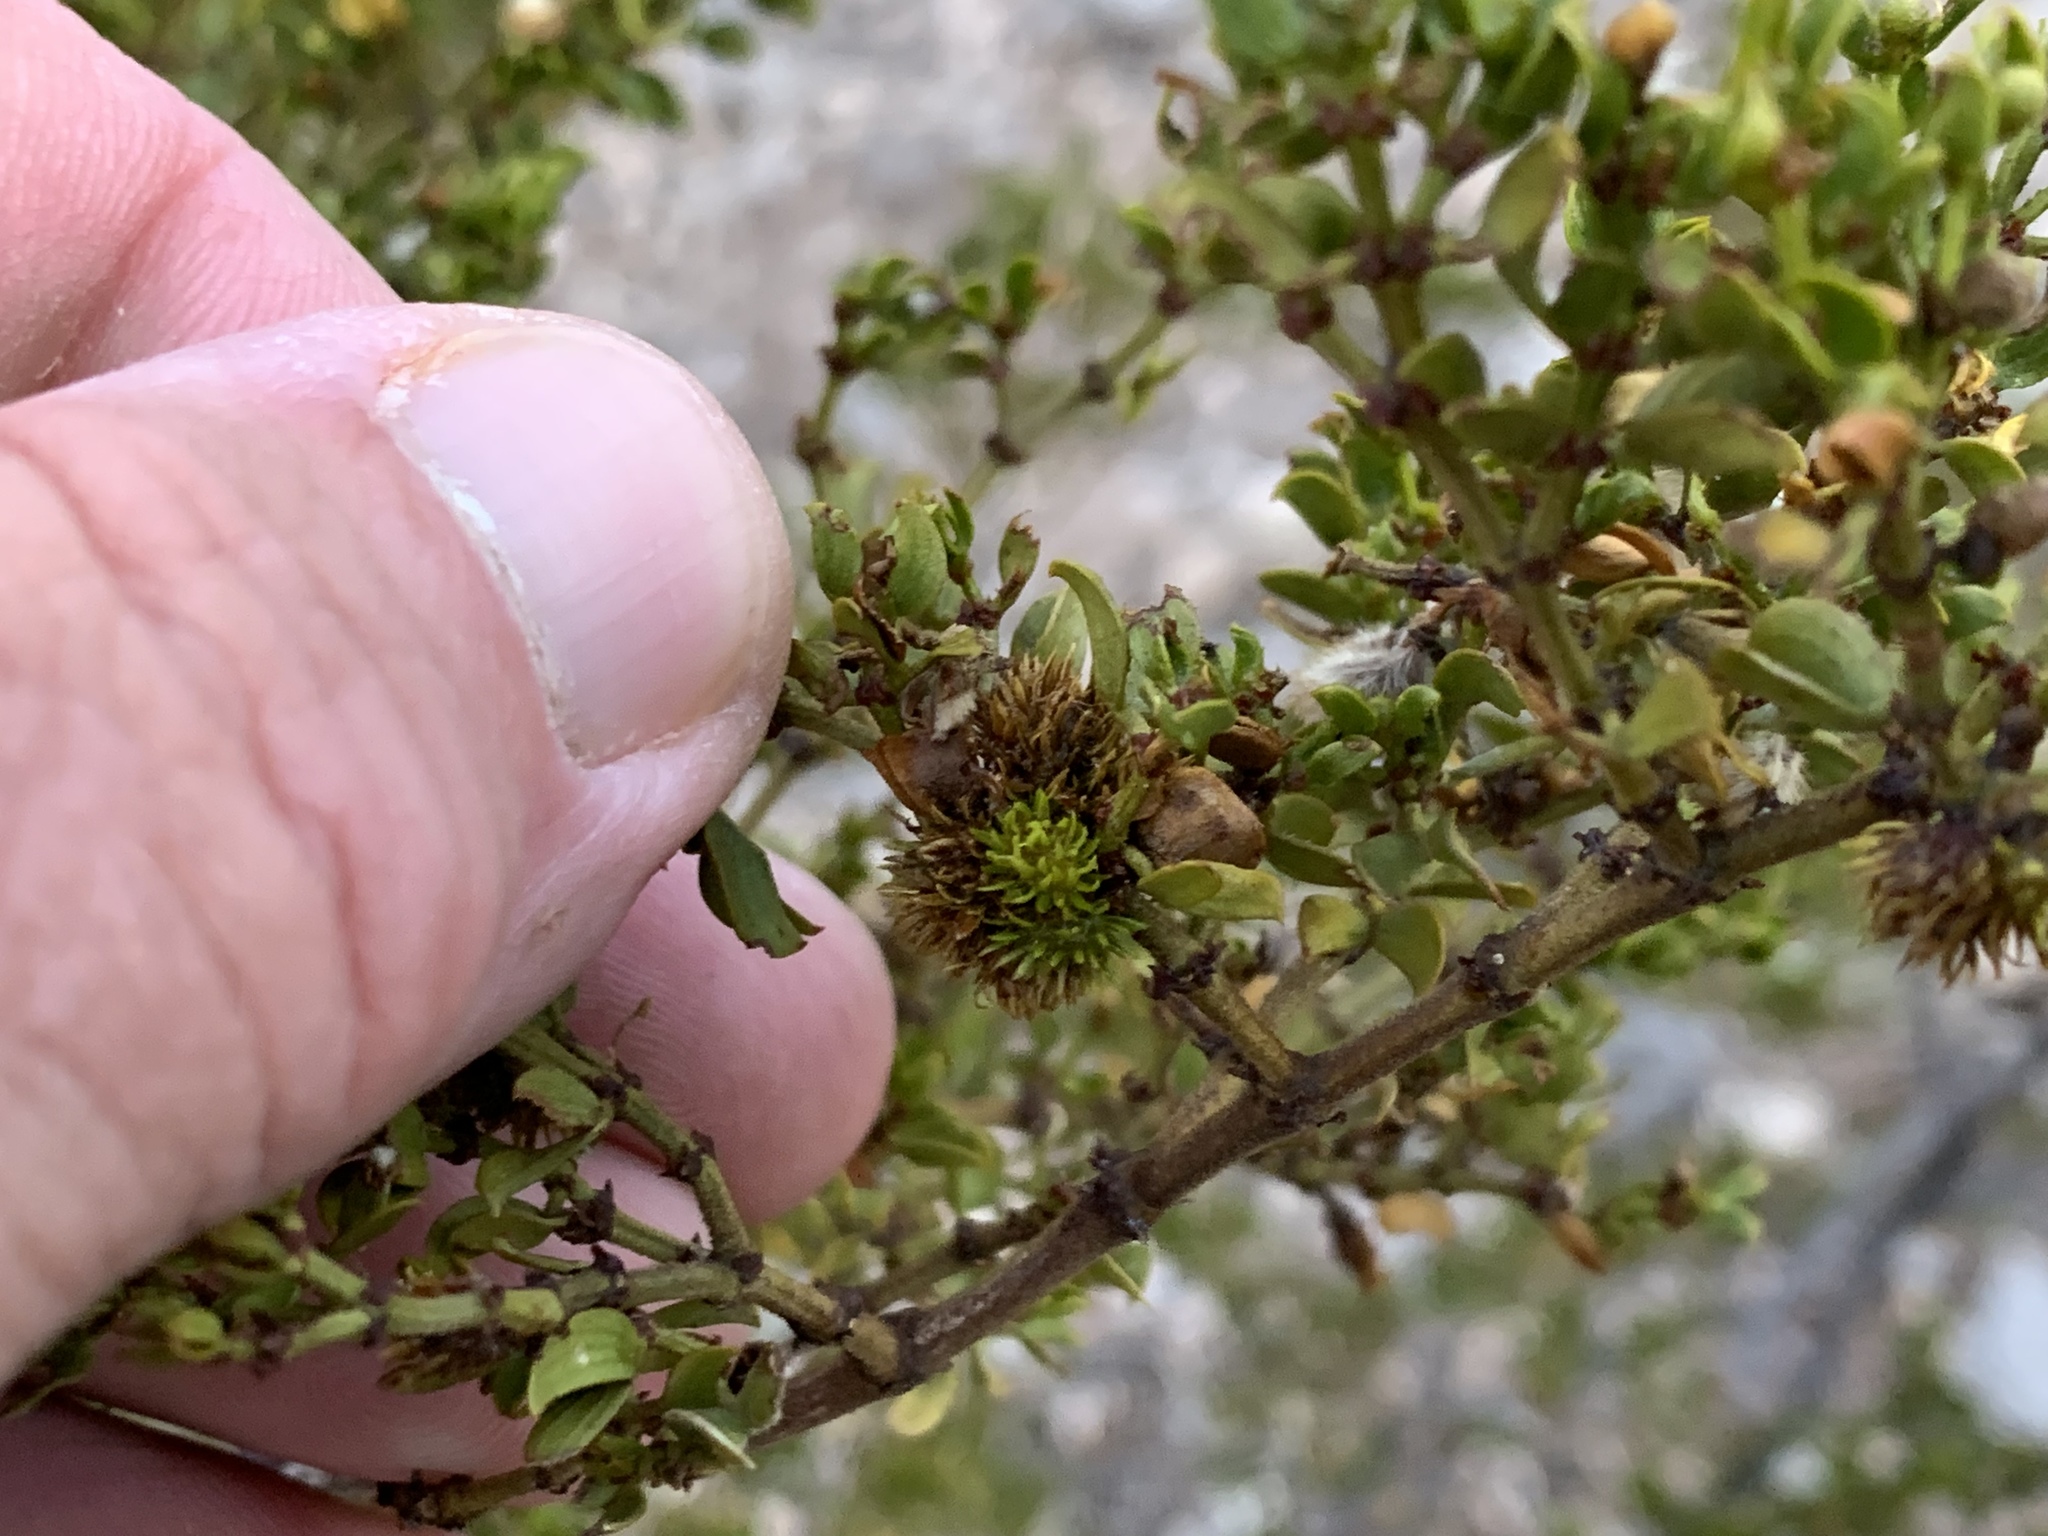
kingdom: Animalia
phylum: Arthropoda
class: Insecta
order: Diptera
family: Cecidomyiidae
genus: Asphondylia
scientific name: Asphondylia foliosa
